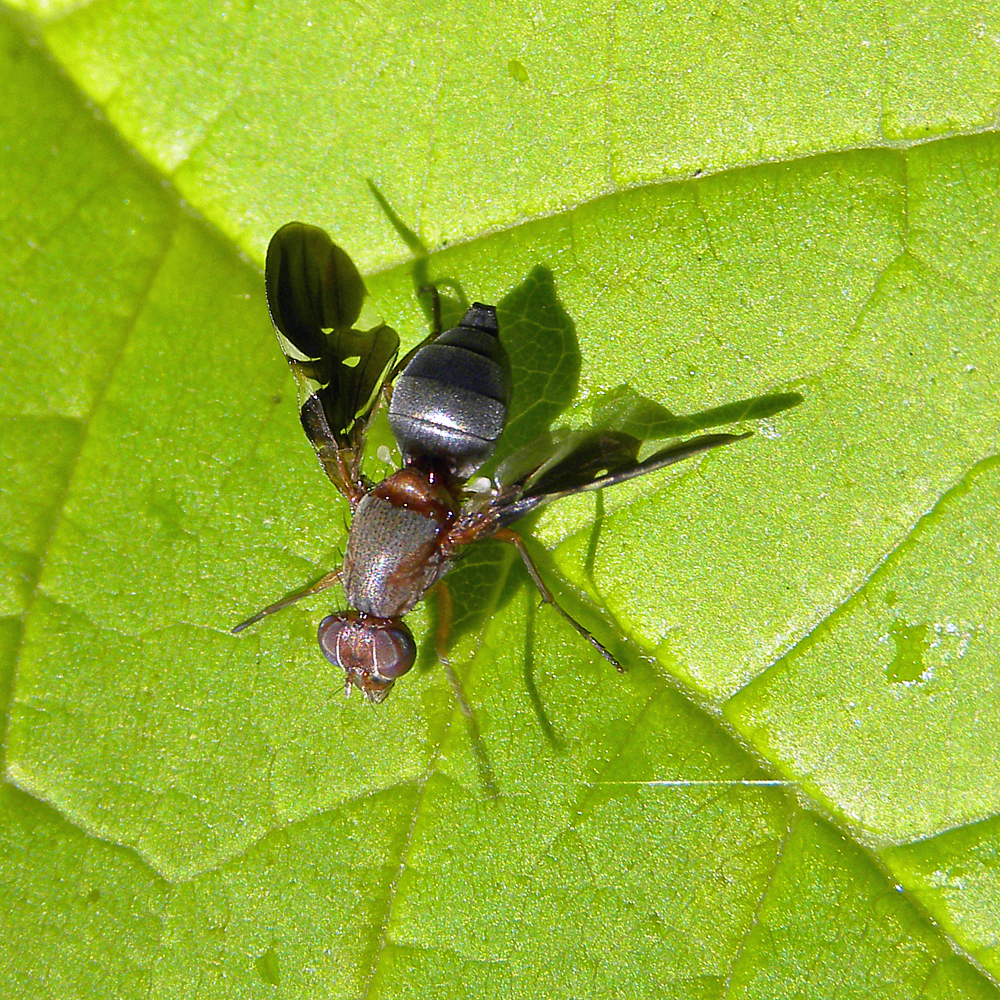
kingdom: Animalia
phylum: Arthropoda
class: Insecta
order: Diptera
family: Ulidiidae
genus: Delphinia
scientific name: Delphinia picta
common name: Common picture-winged fly
